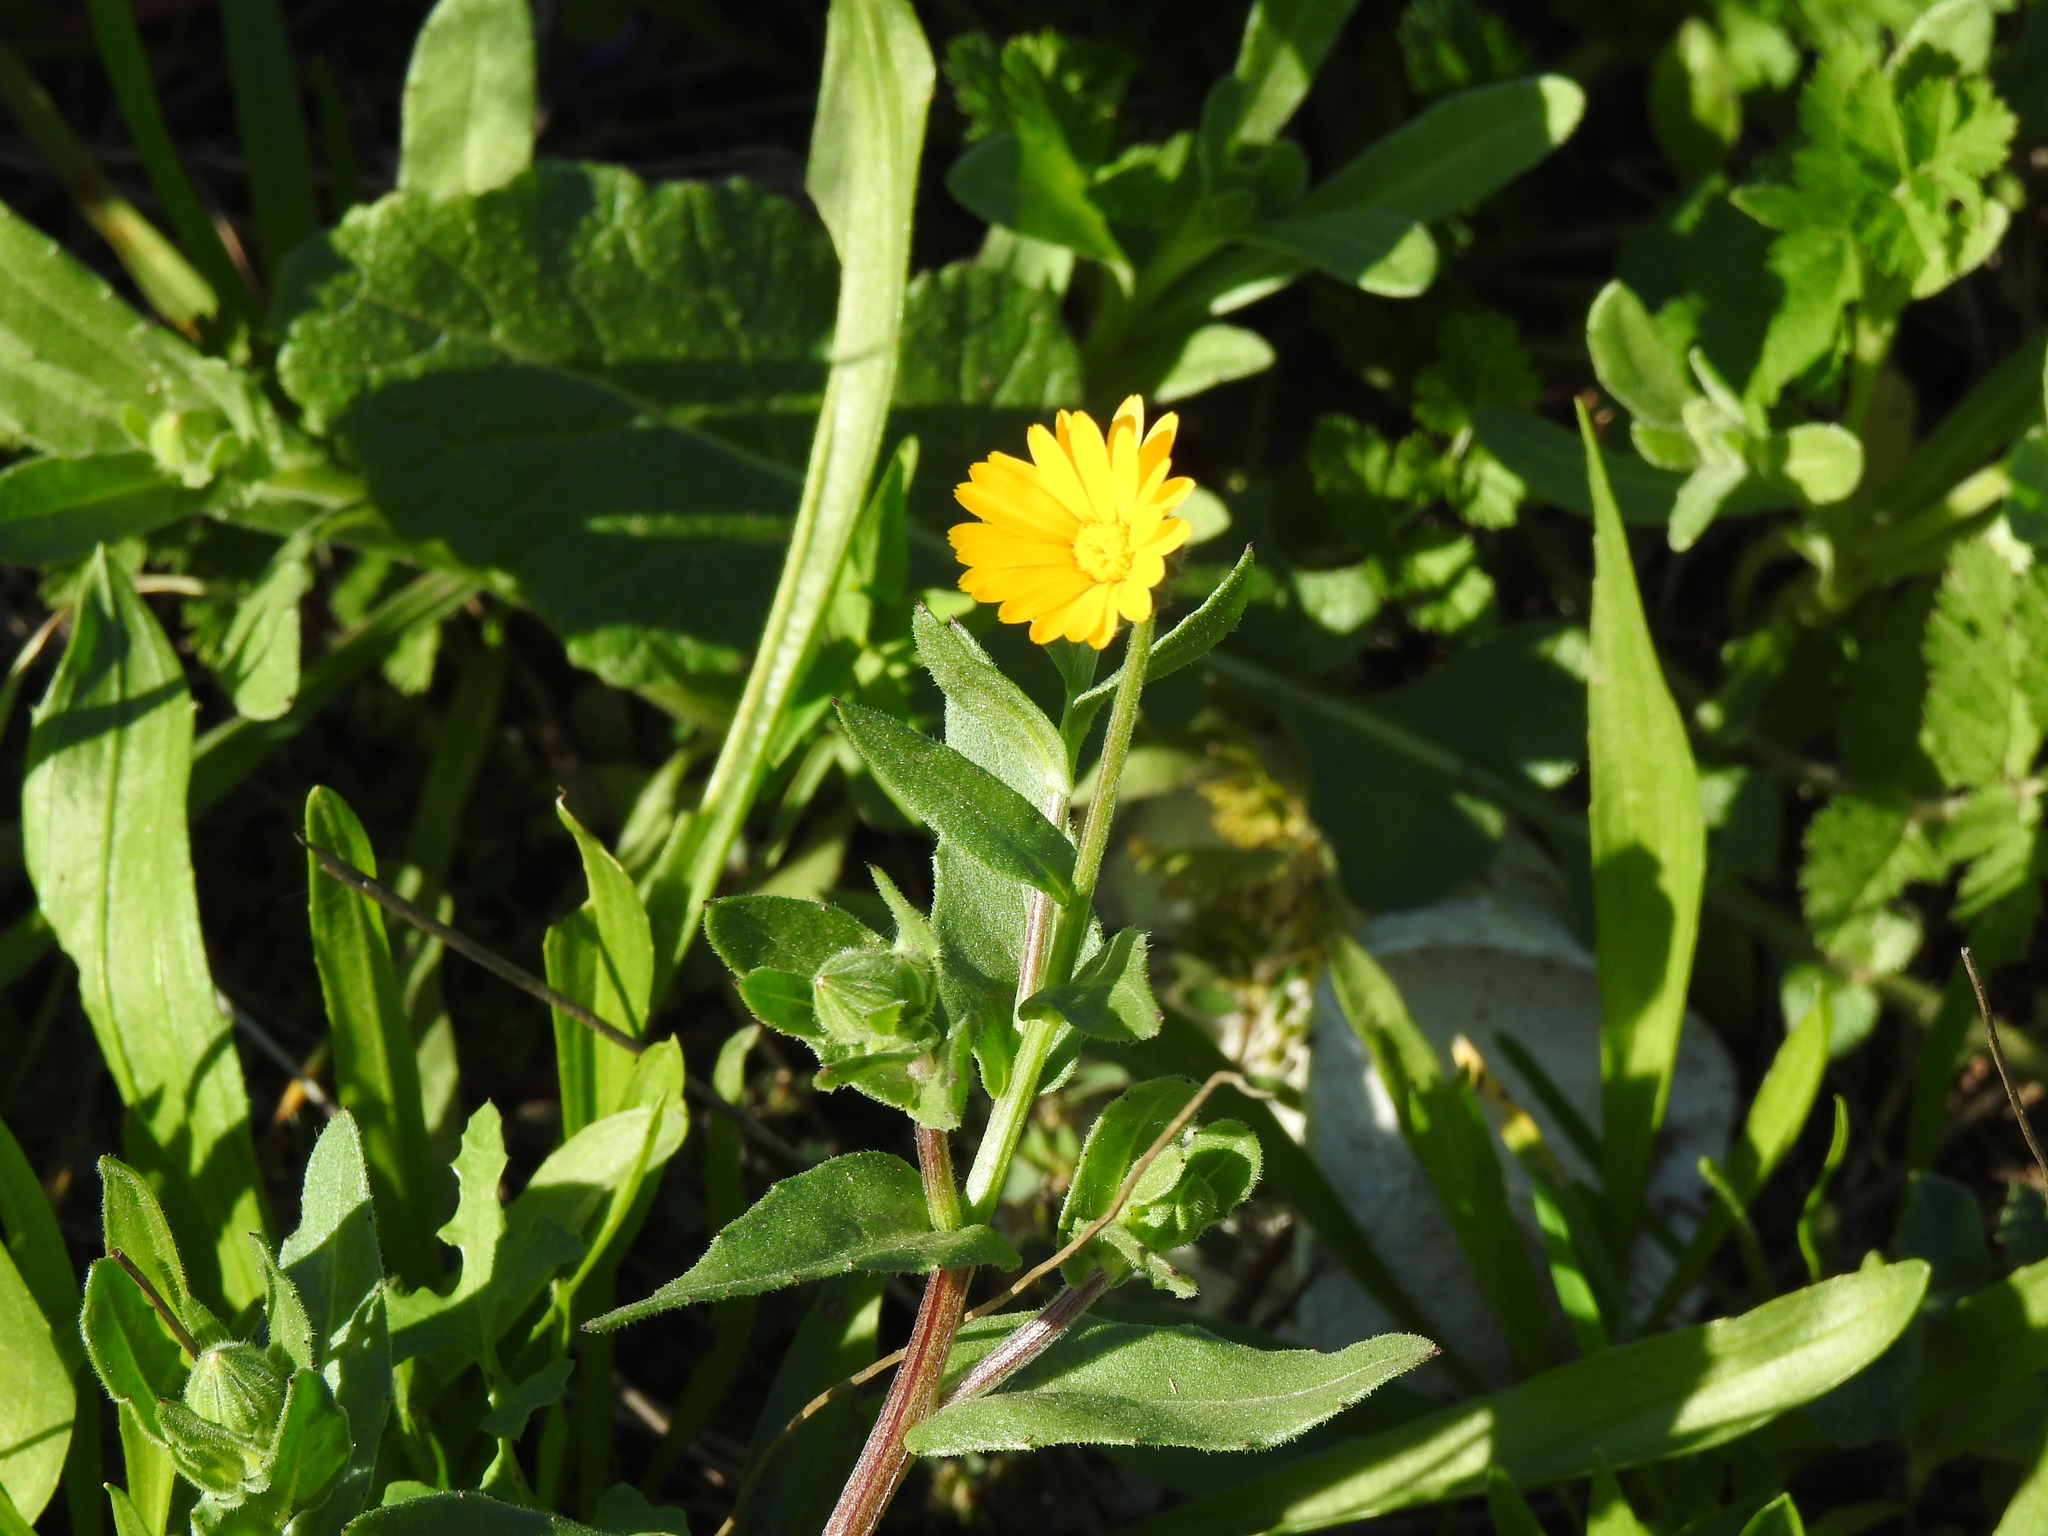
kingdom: Plantae
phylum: Tracheophyta
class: Magnoliopsida
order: Asterales
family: Asteraceae
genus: Calendula
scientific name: Calendula arvensis
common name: Field marigold
